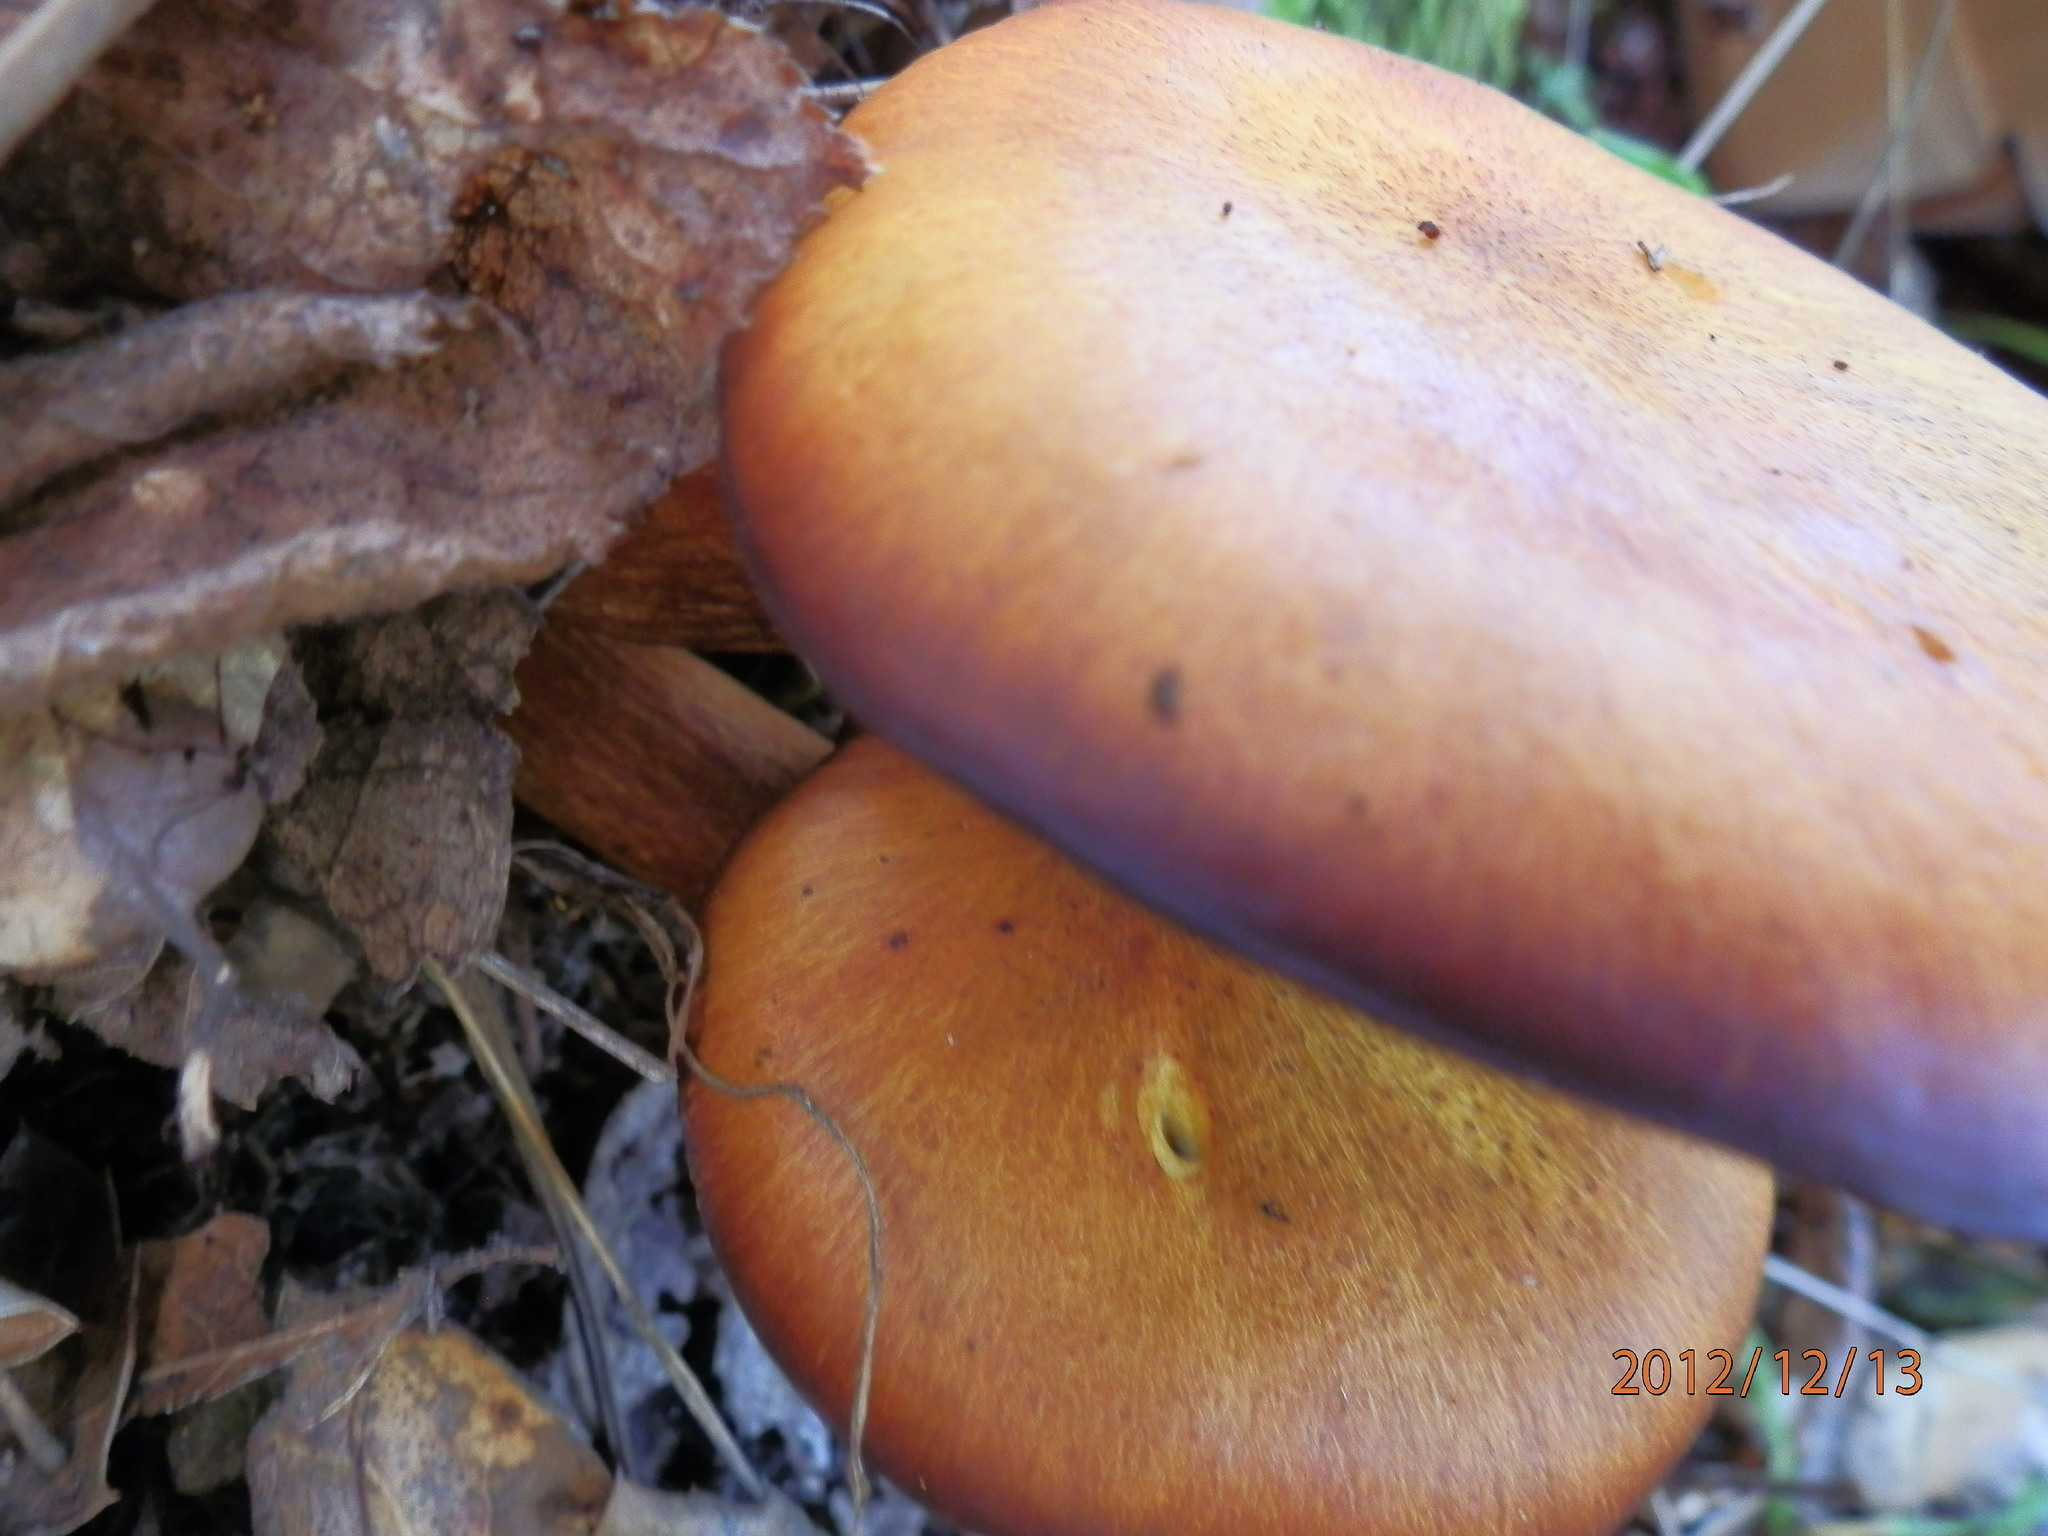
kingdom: Fungi
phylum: Basidiomycota
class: Agaricomycetes
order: Agaricales
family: Omphalotaceae
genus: Omphalotus
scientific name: Omphalotus olivascens
